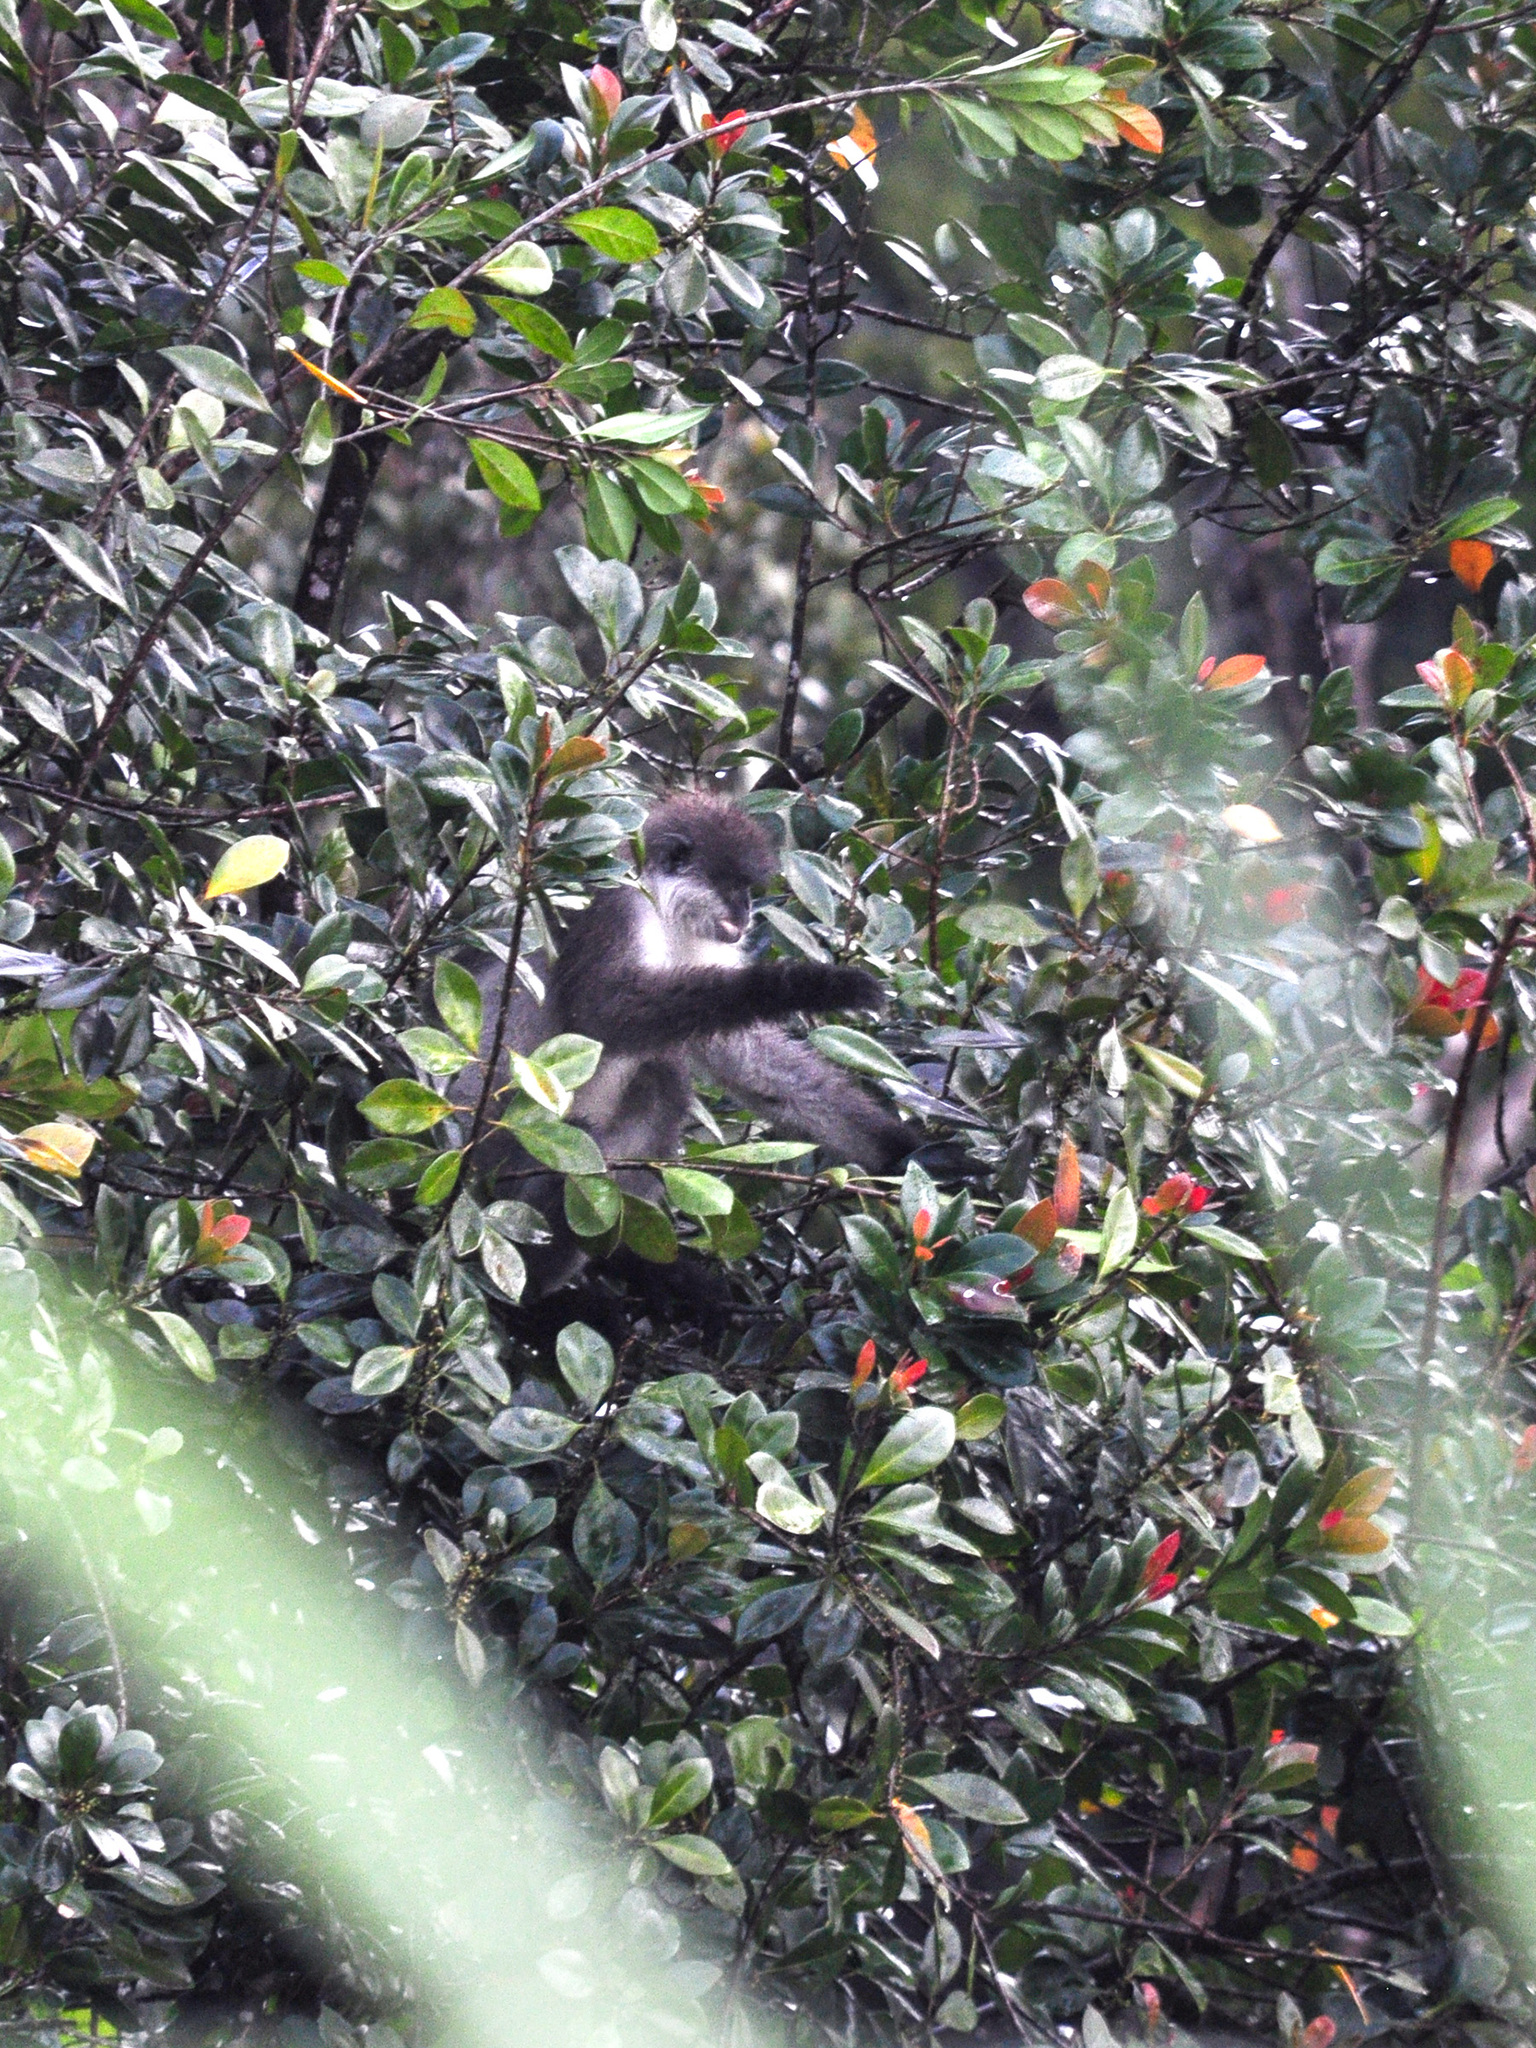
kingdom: Animalia
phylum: Chordata
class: Mammalia
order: Primates
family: Cercopithecidae
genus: Presbytis
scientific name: Presbytis siamensis
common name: White-thighed surili
